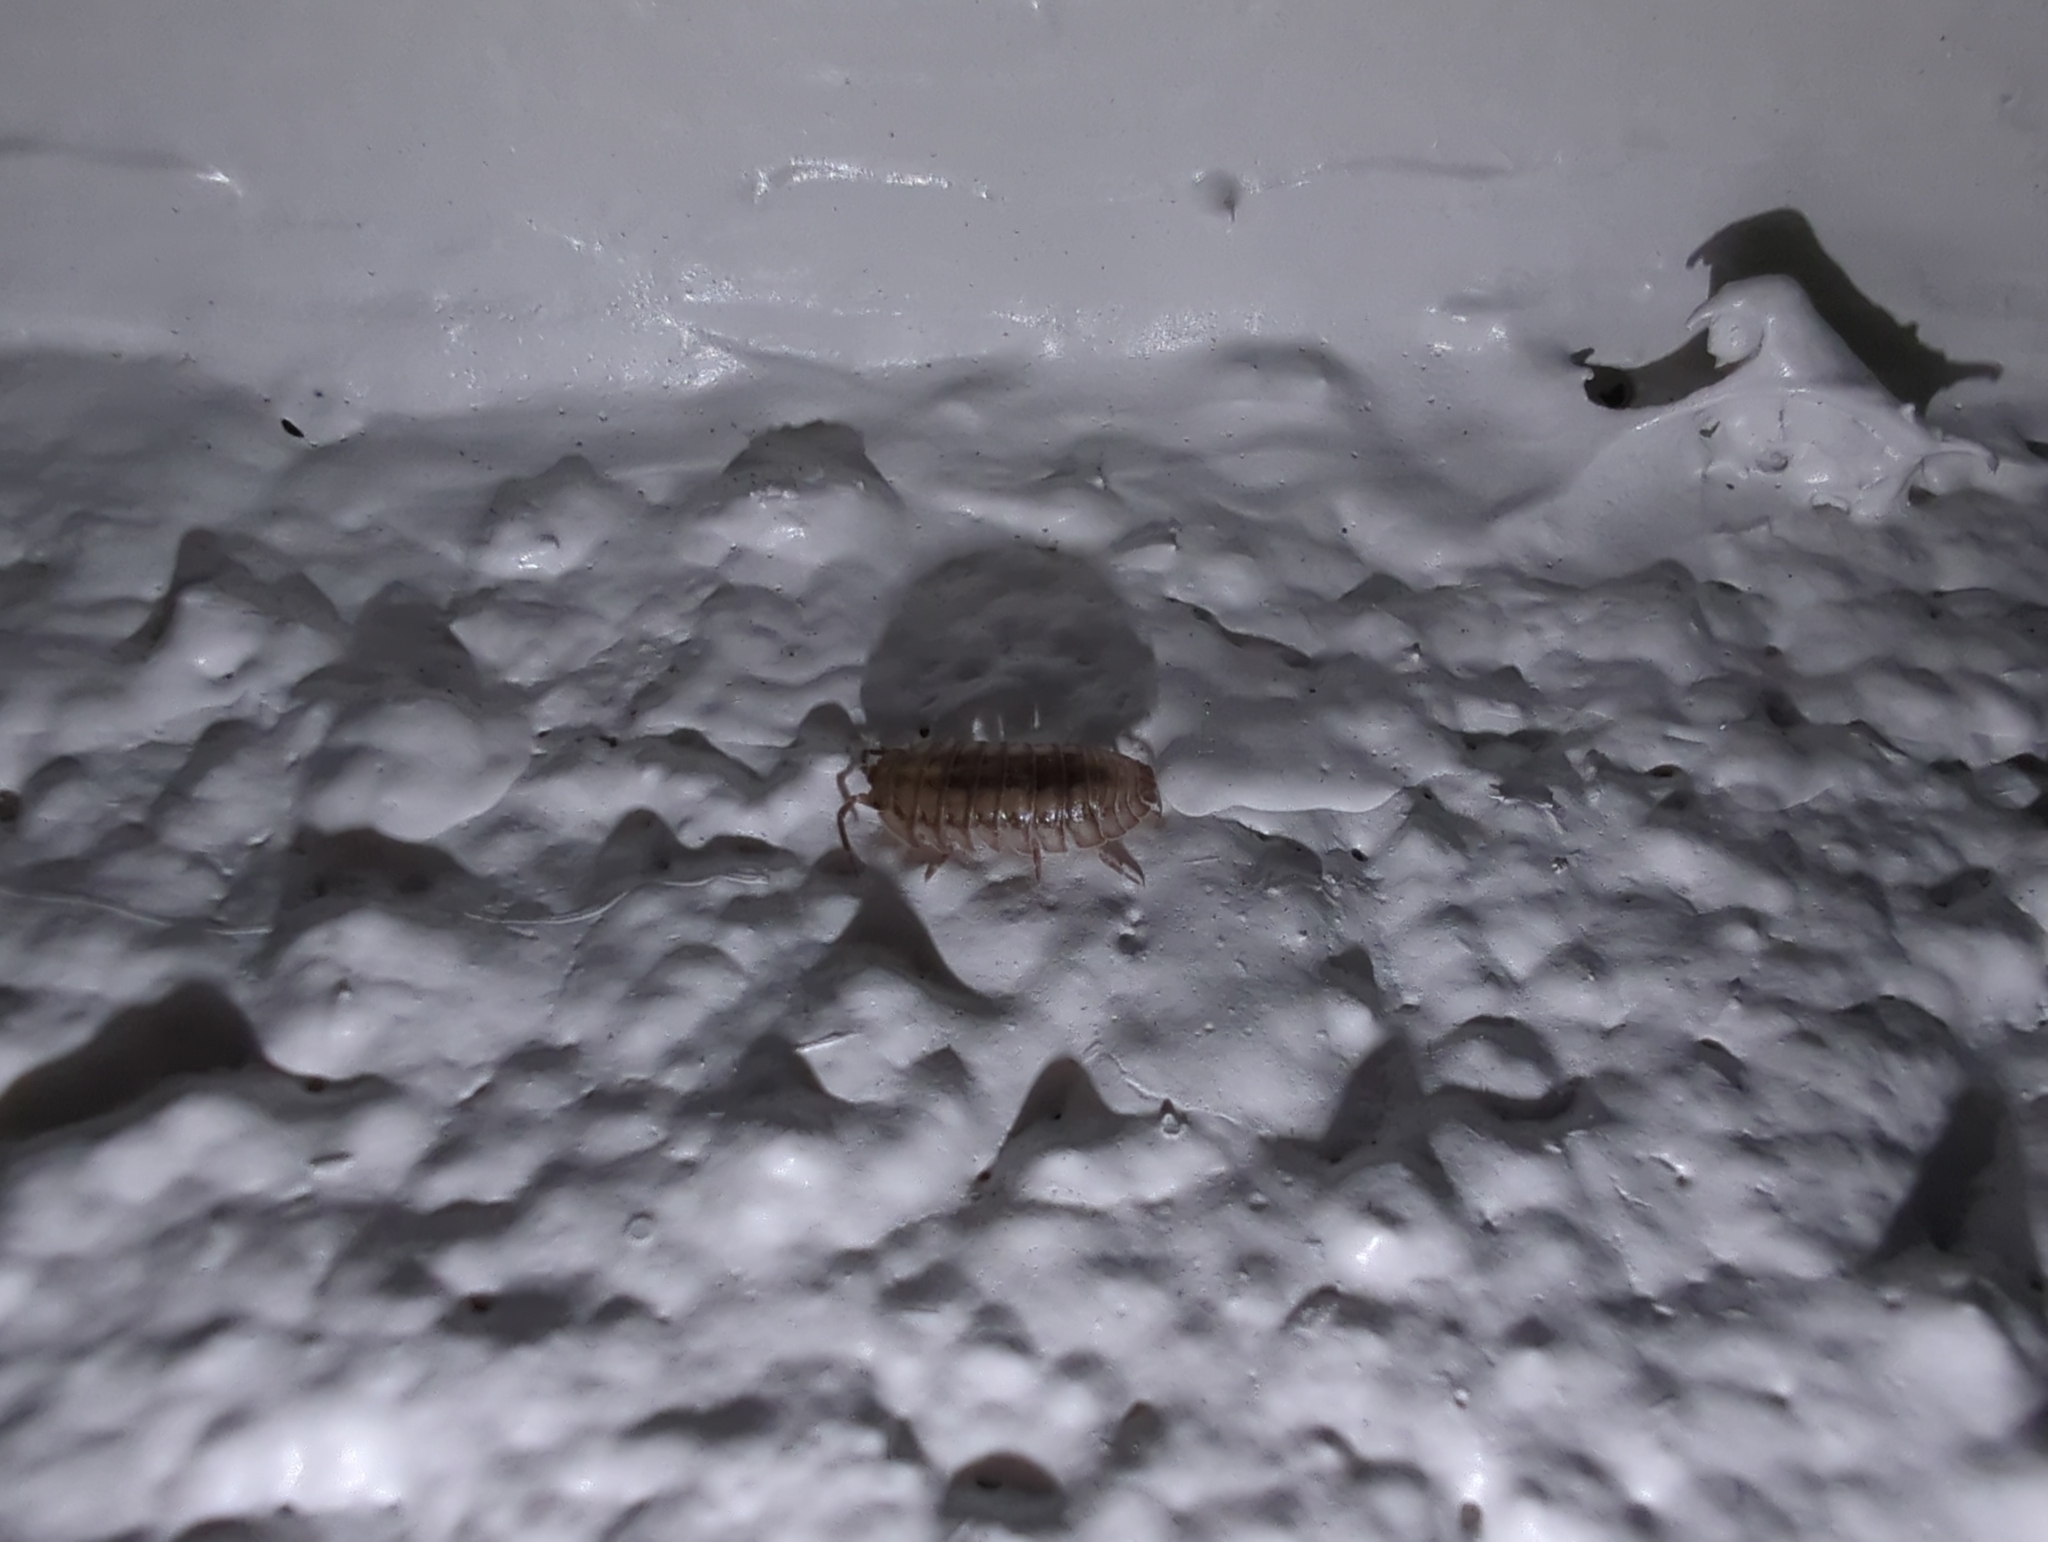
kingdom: Animalia
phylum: Arthropoda
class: Malacostraca
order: Isopoda
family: Armadillidiidae
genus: Armadillidium
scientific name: Armadillidium nasatum
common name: Isopod
